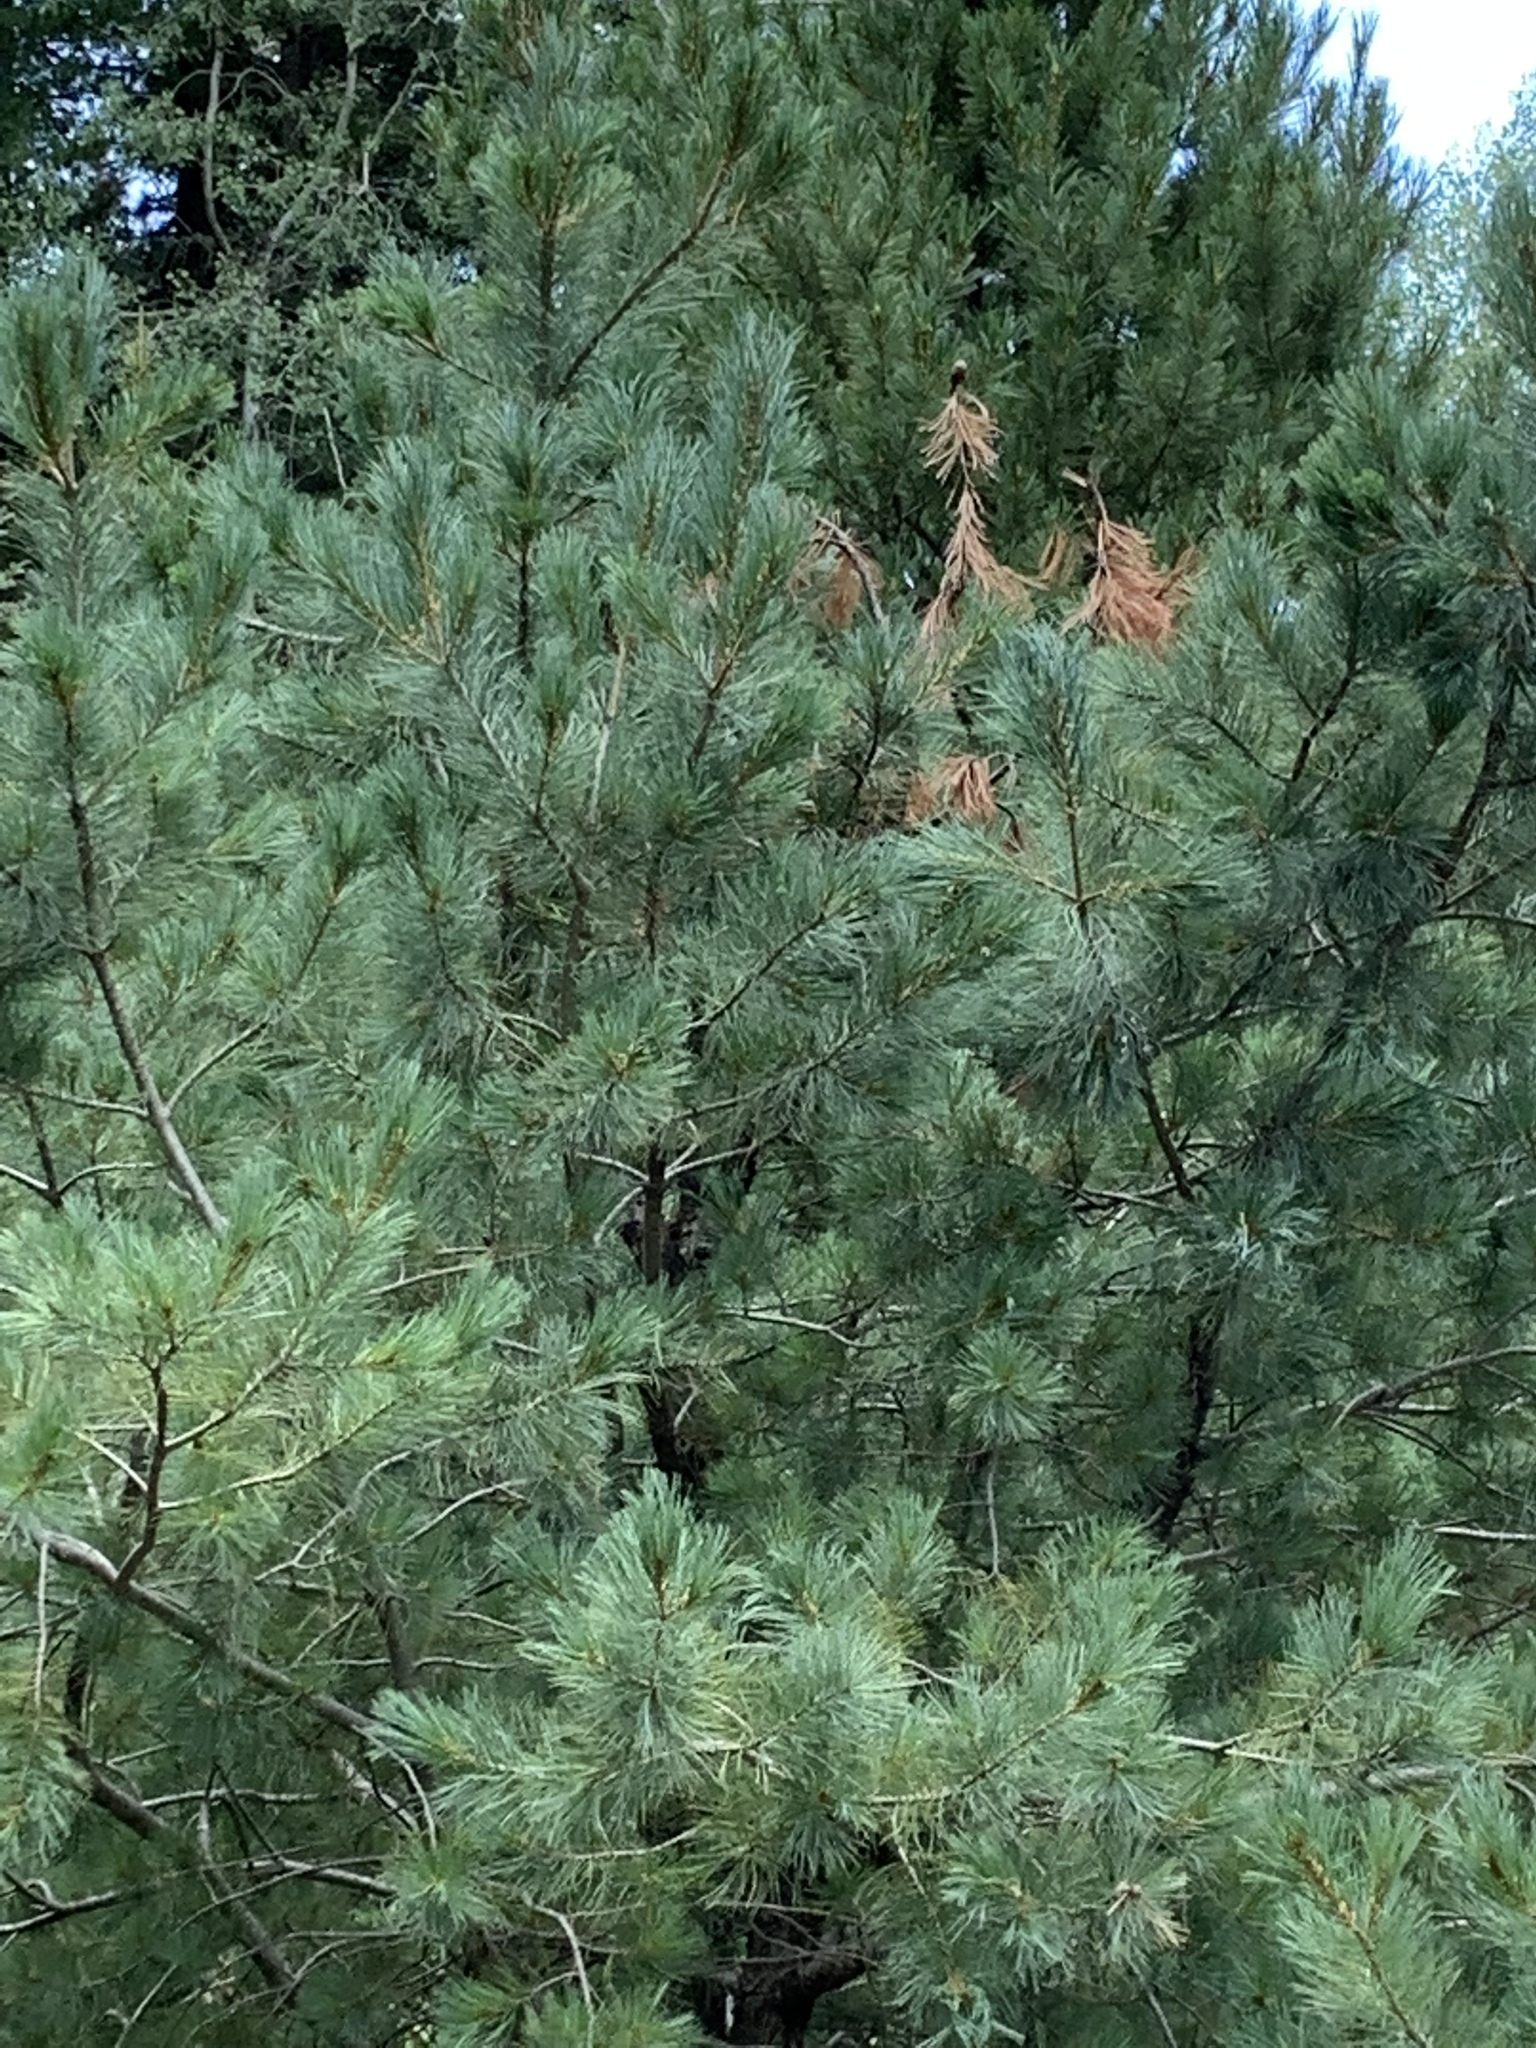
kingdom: Plantae
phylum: Tracheophyta
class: Pinopsida
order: Pinales
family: Pinaceae
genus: Pinus
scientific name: Pinus strobiformis
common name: Southwestern white pine
